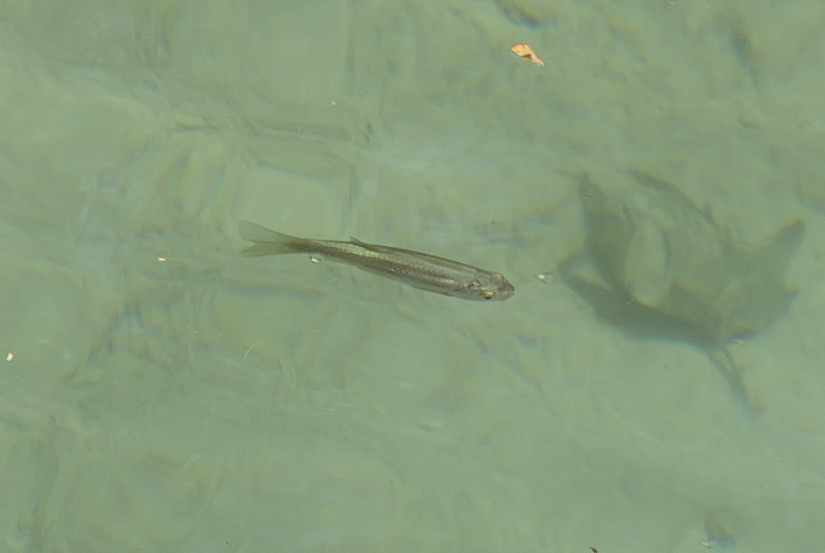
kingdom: Animalia
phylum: Chordata
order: Cypriniformes
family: Cyprinidae
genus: Squalius
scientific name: Squalius ghigii
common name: Rhodes minnow
